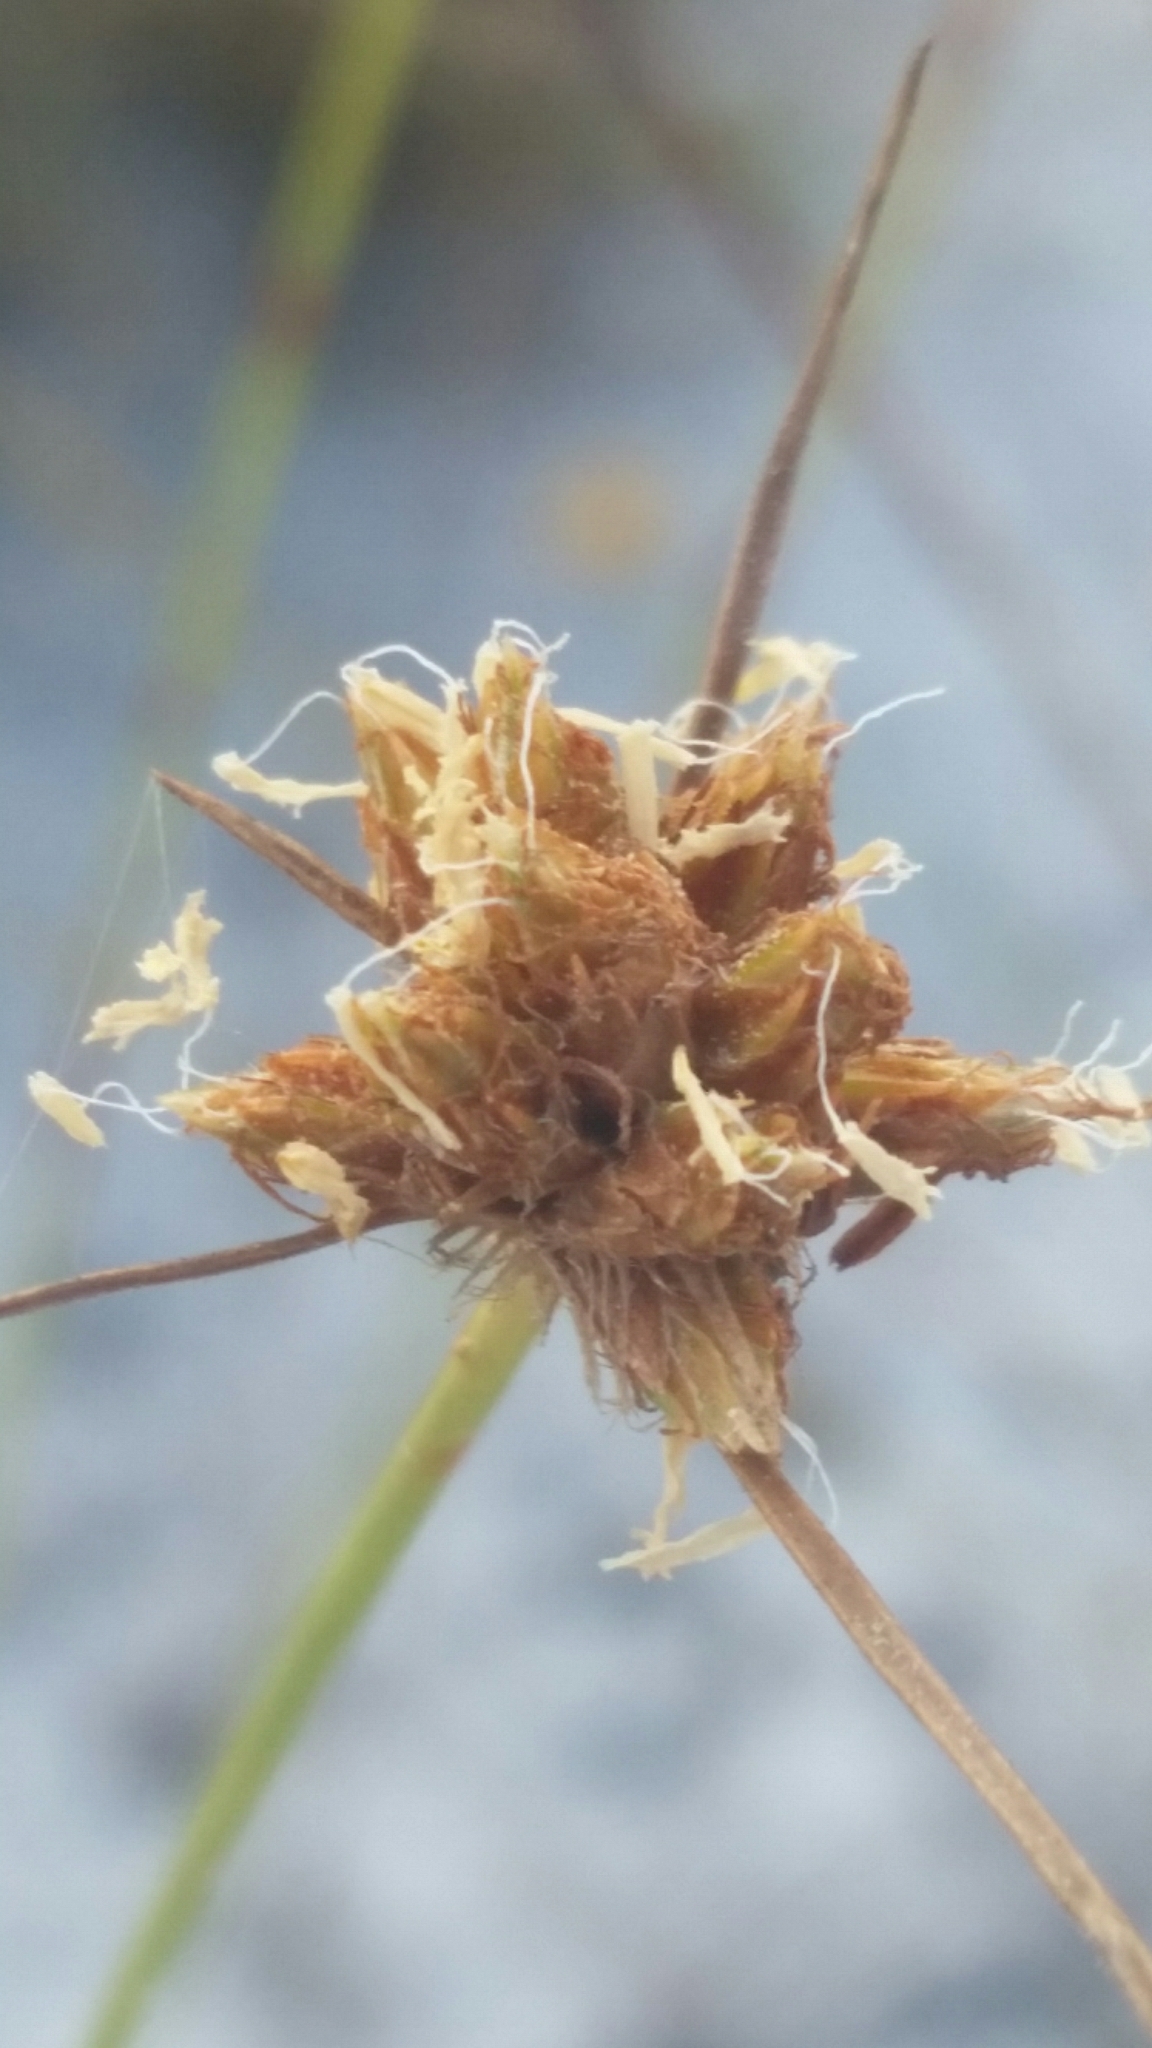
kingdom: Plantae
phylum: Tracheophyta
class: Liliopsida
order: Poales
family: Cyperaceae
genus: Bulbostylis
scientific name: Bulbostylis warei
